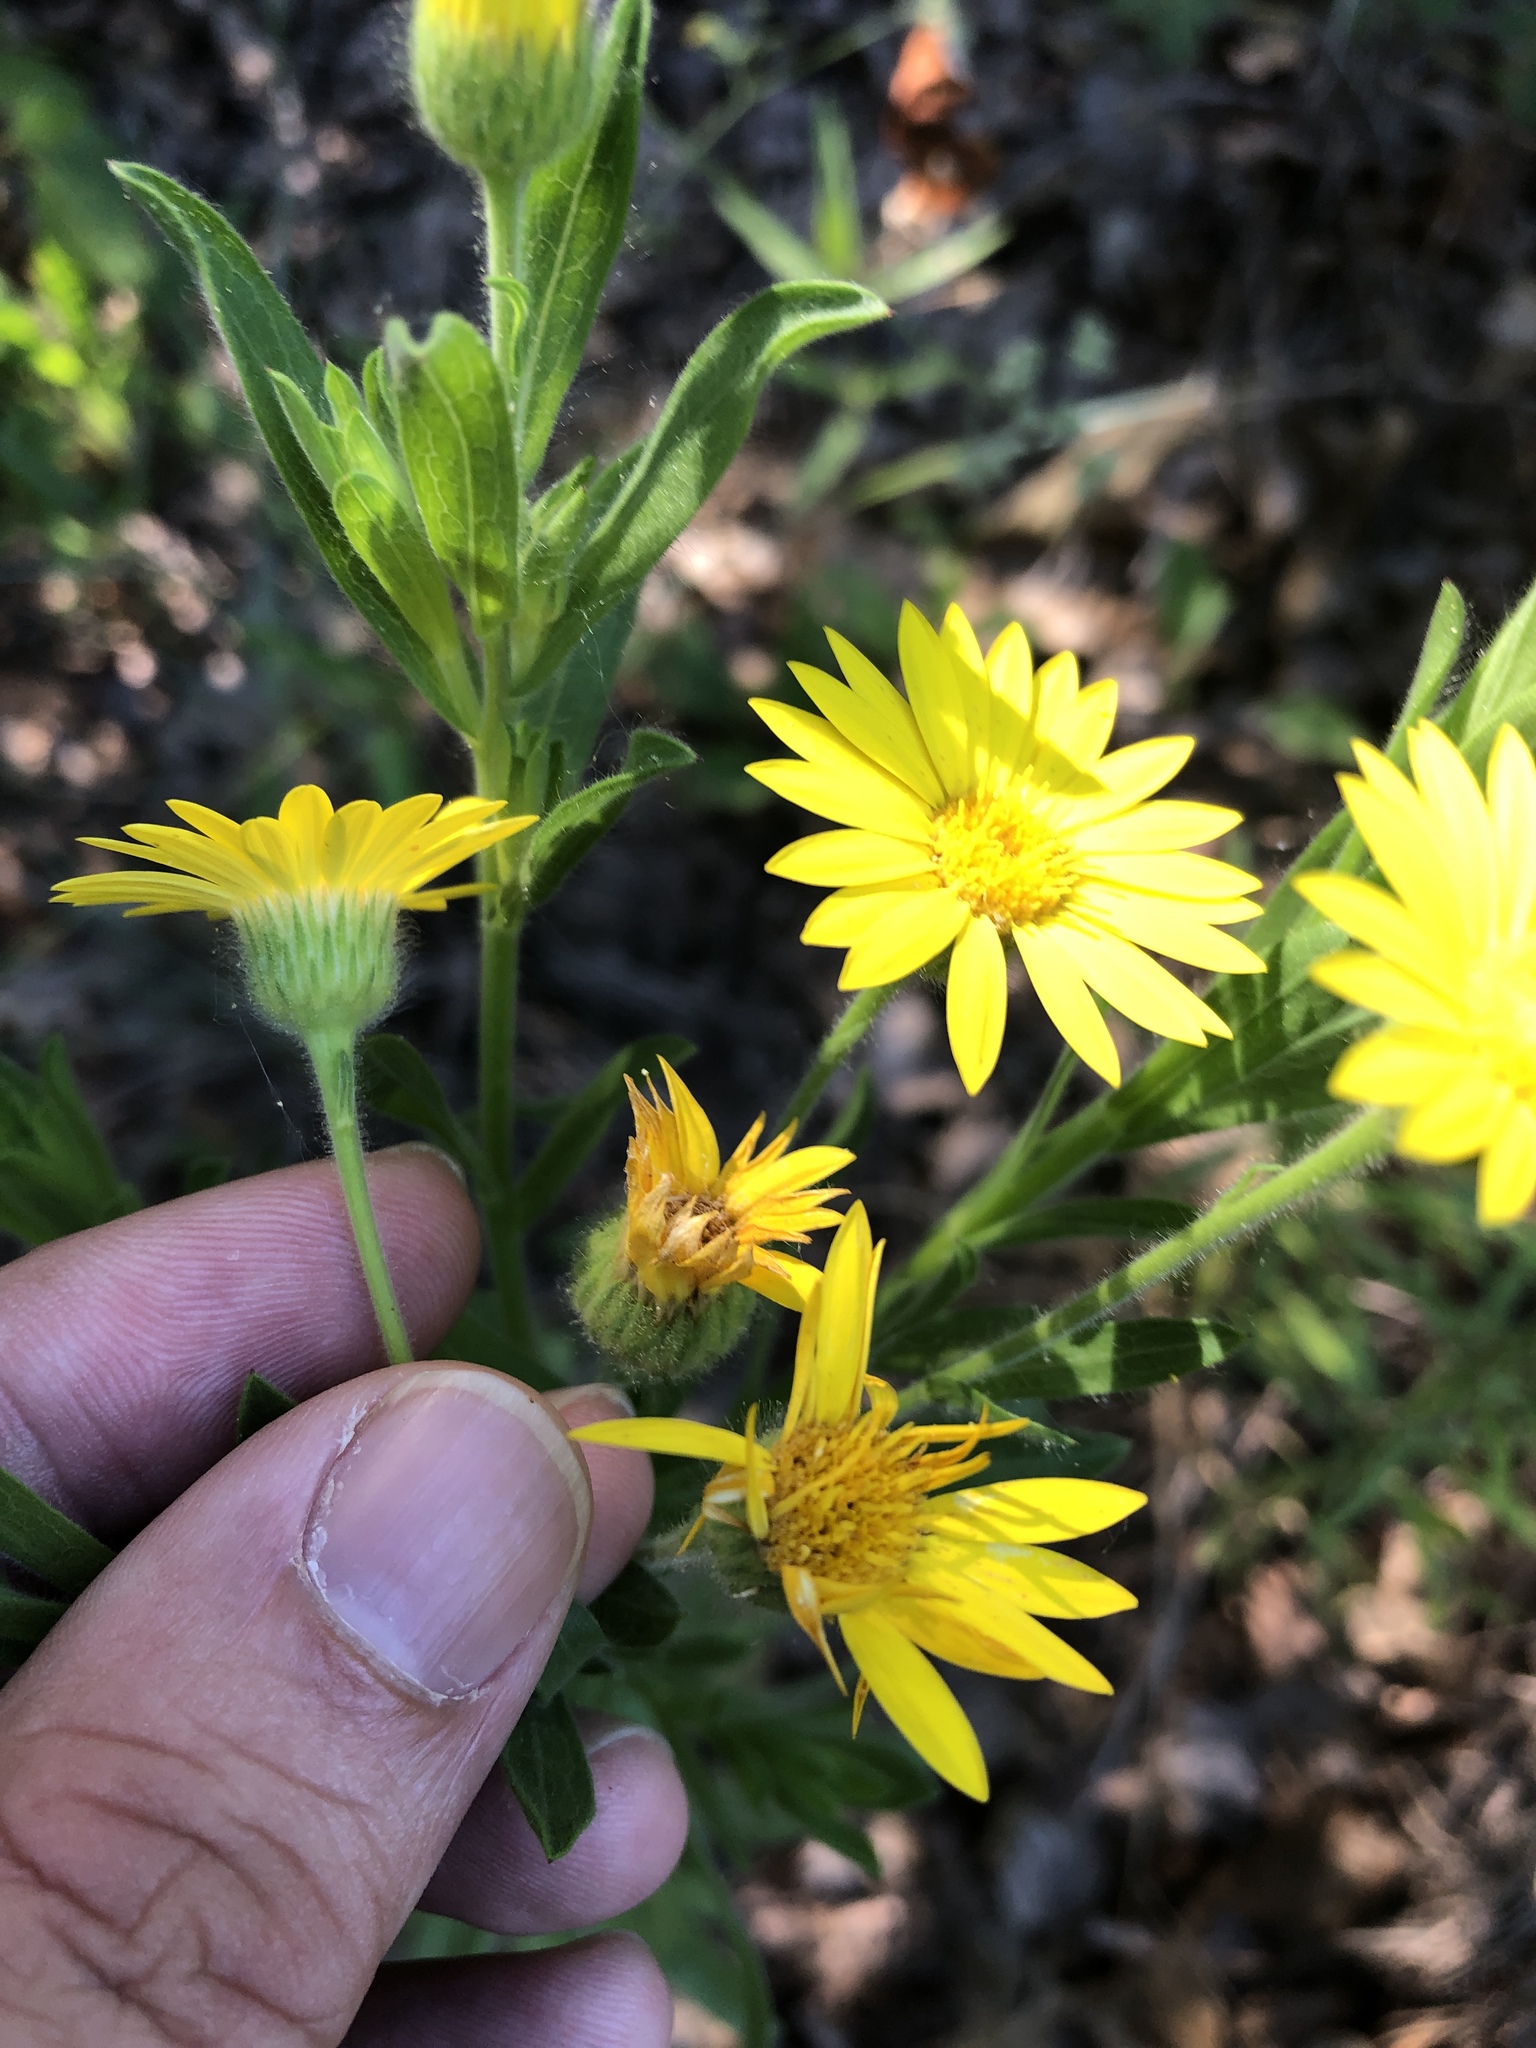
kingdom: Plantae
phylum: Tracheophyta
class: Magnoliopsida
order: Asterales
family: Asteraceae
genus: Bradburia
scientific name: Bradburia pilosa
